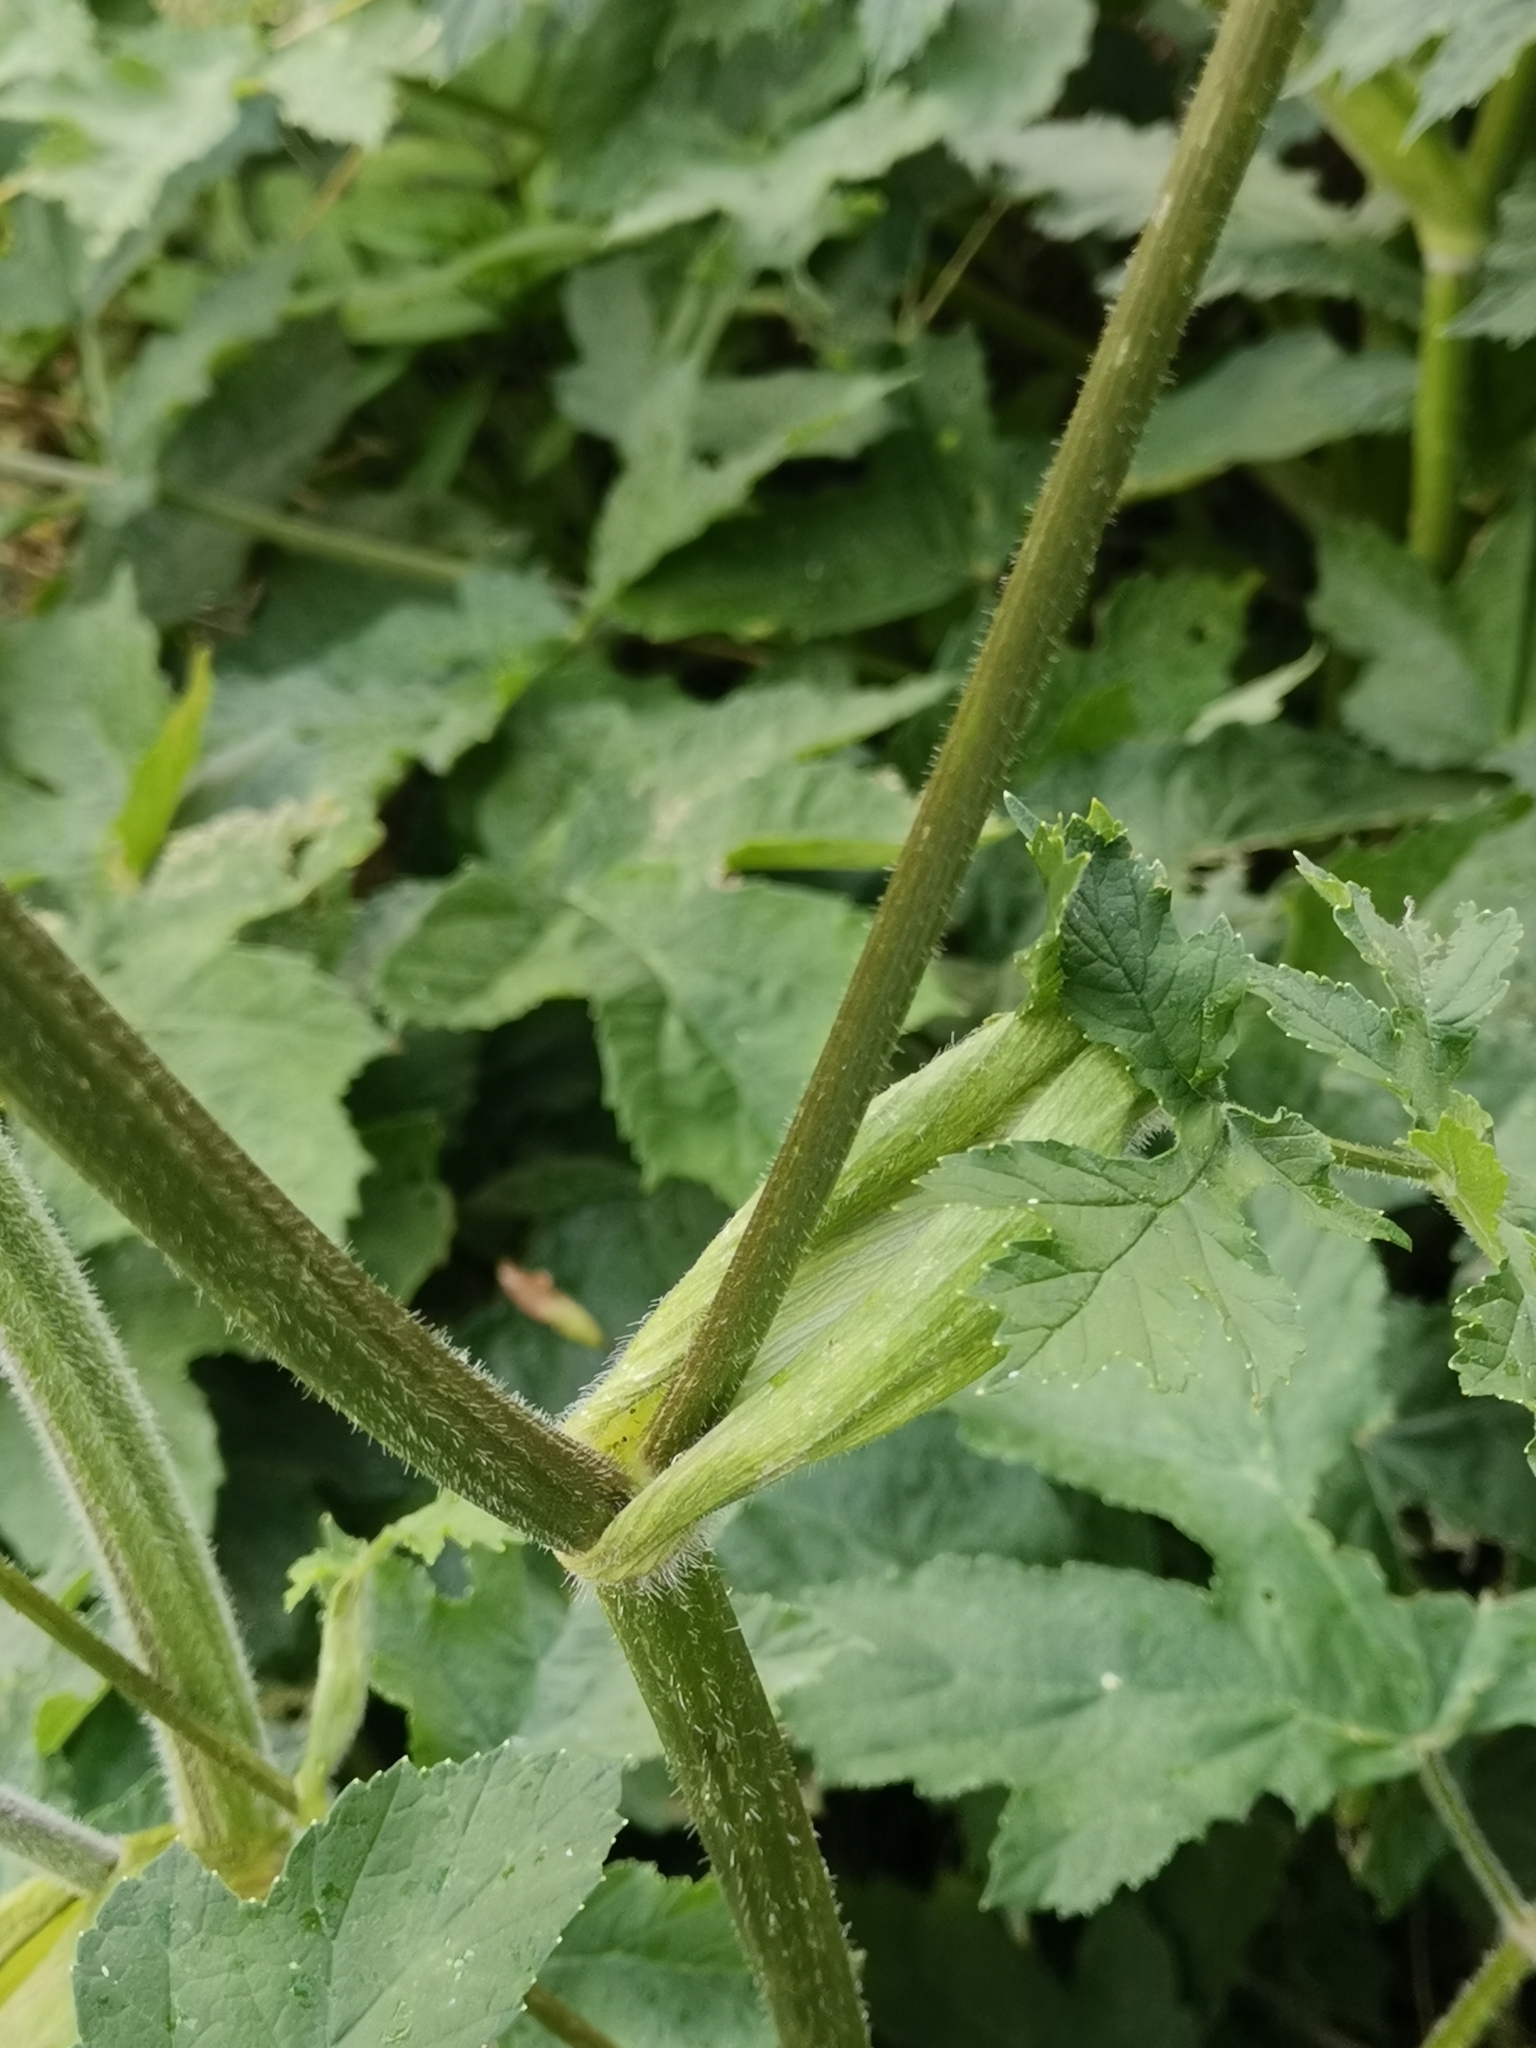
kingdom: Plantae
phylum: Tracheophyta
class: Magnoliopsida
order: Apiales
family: Apiaceae
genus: Heracleum
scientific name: Heracleum sphondylium
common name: Hogweed
